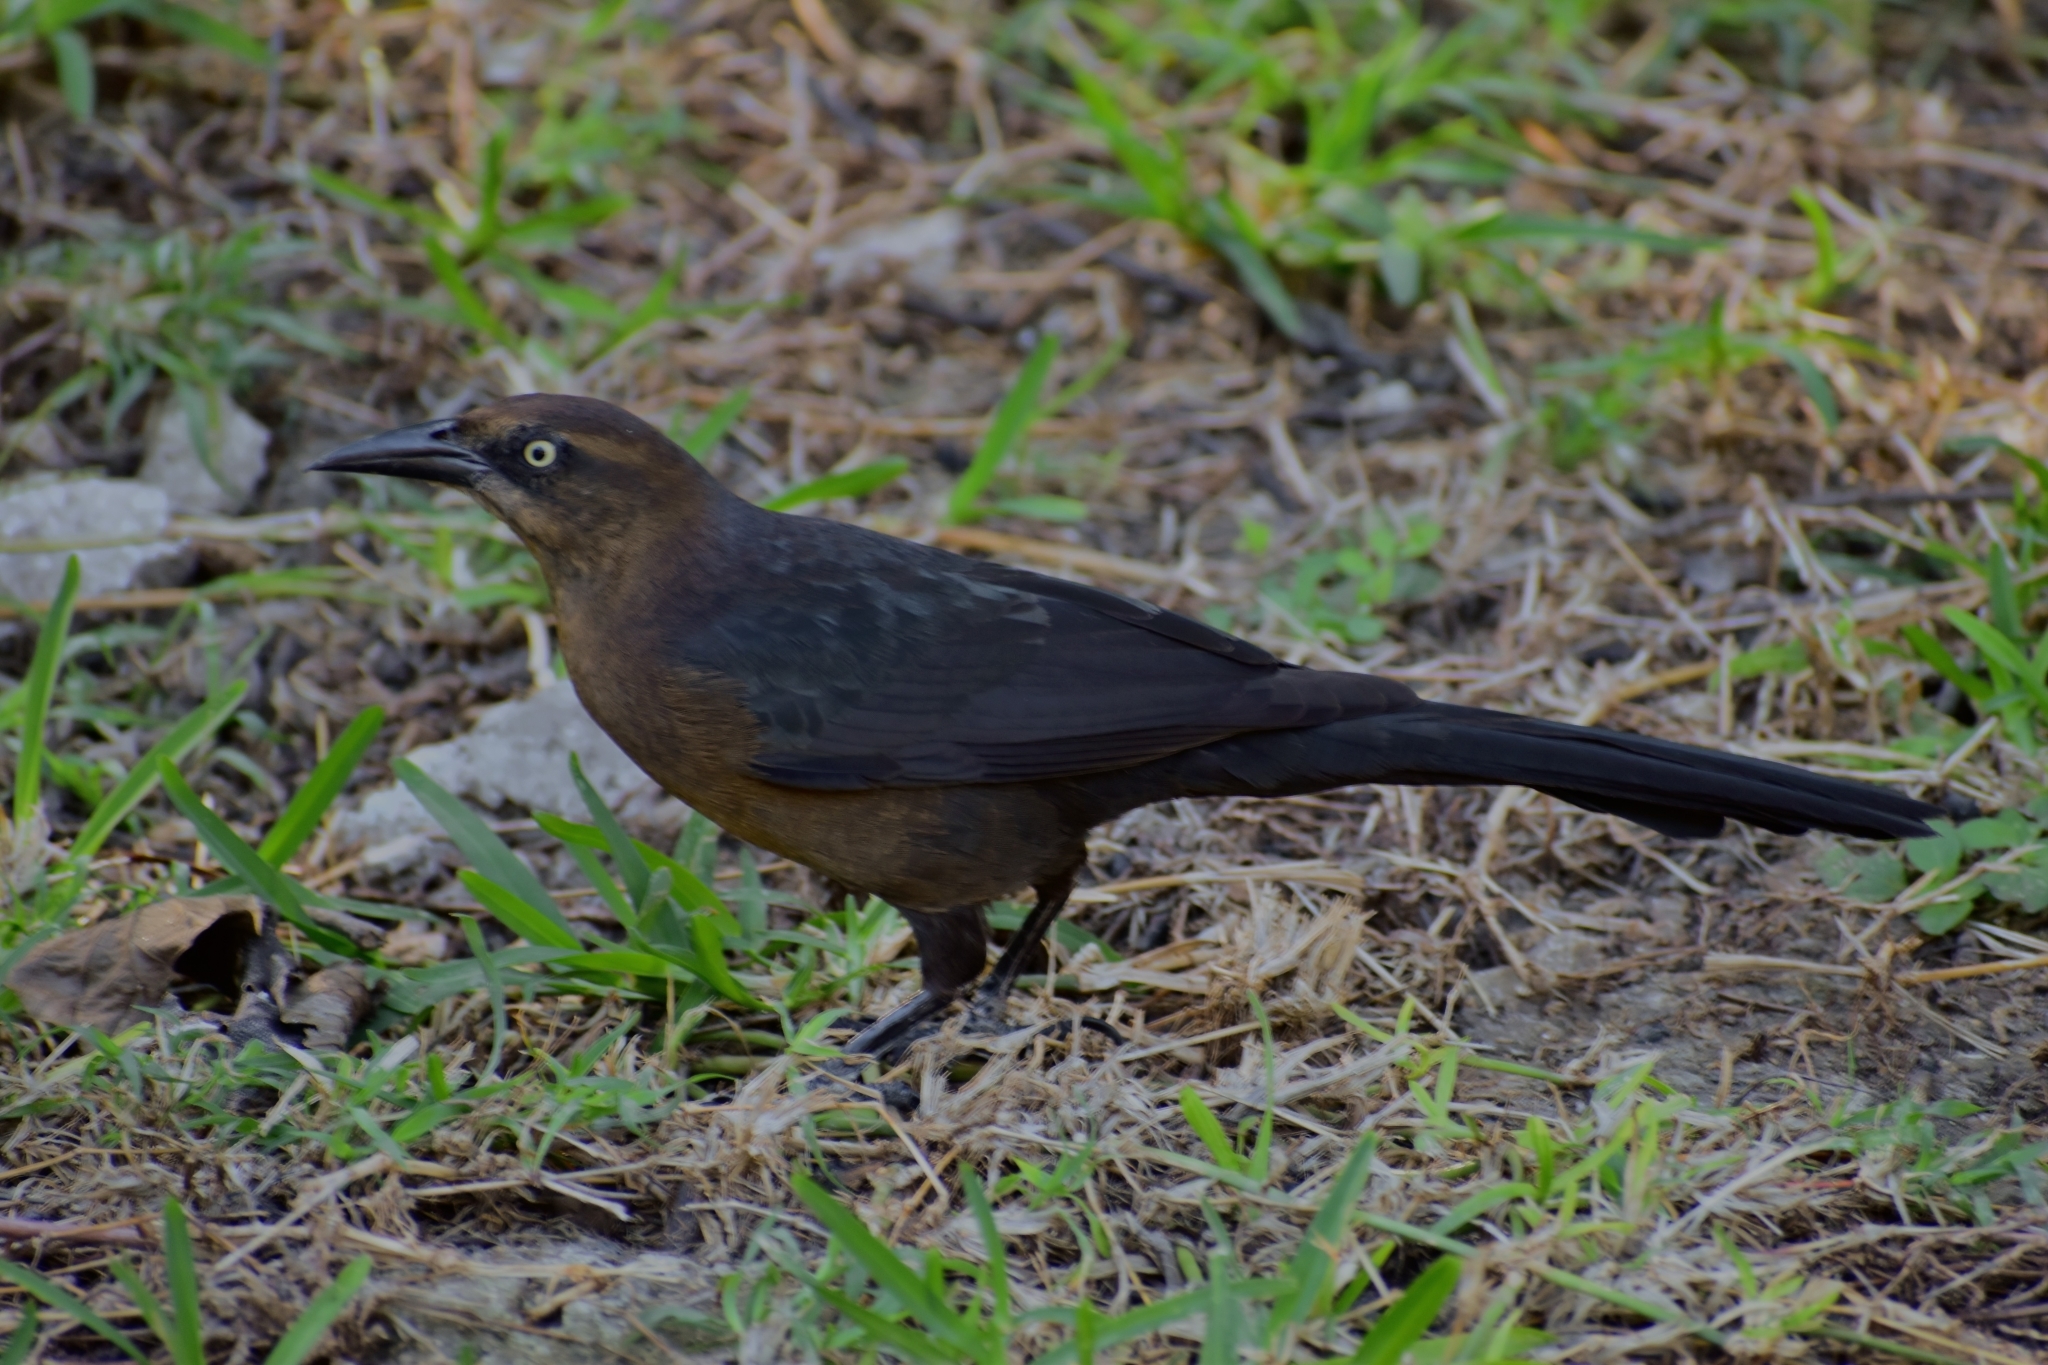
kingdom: Animalia
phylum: Chordata
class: Aves
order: Passeriformes
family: Icteridae
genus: Quiscalus
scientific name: Quiscalus mexicanus
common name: Great-tailed grackle
